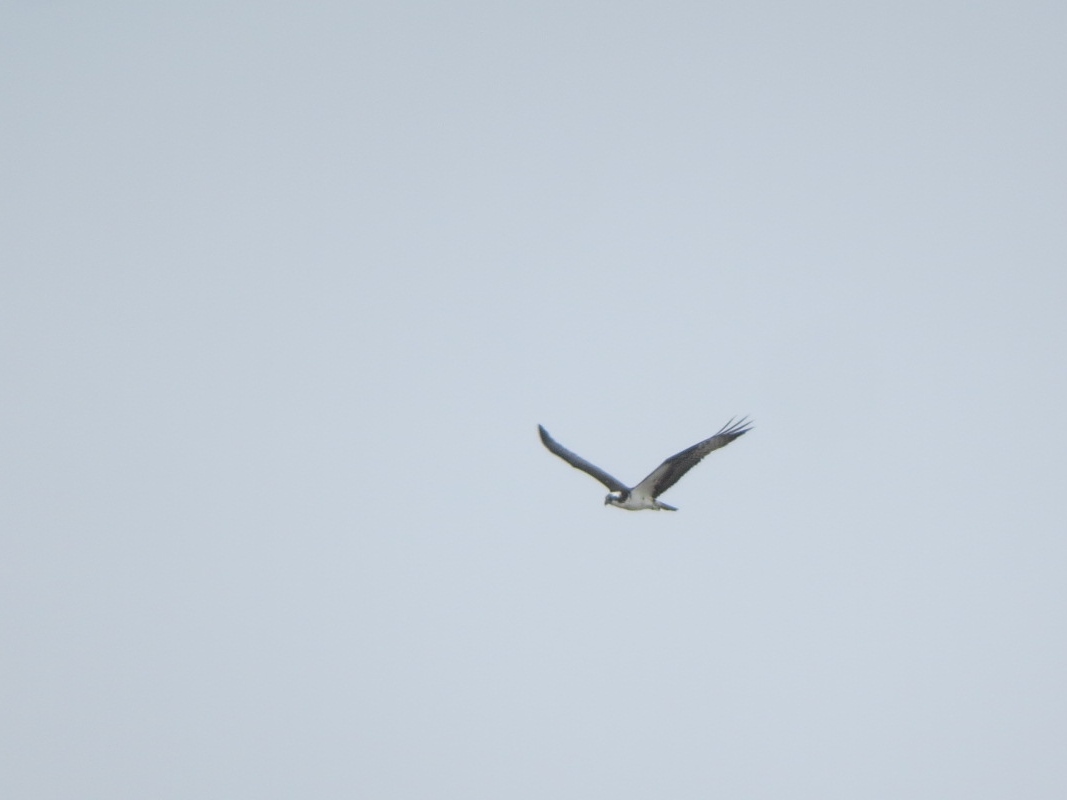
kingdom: Animalia
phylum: Chordata
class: Aves
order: Accipitriformes
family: Pandionidae
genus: Pandion
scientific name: Pandion haliaetus
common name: Osprey
